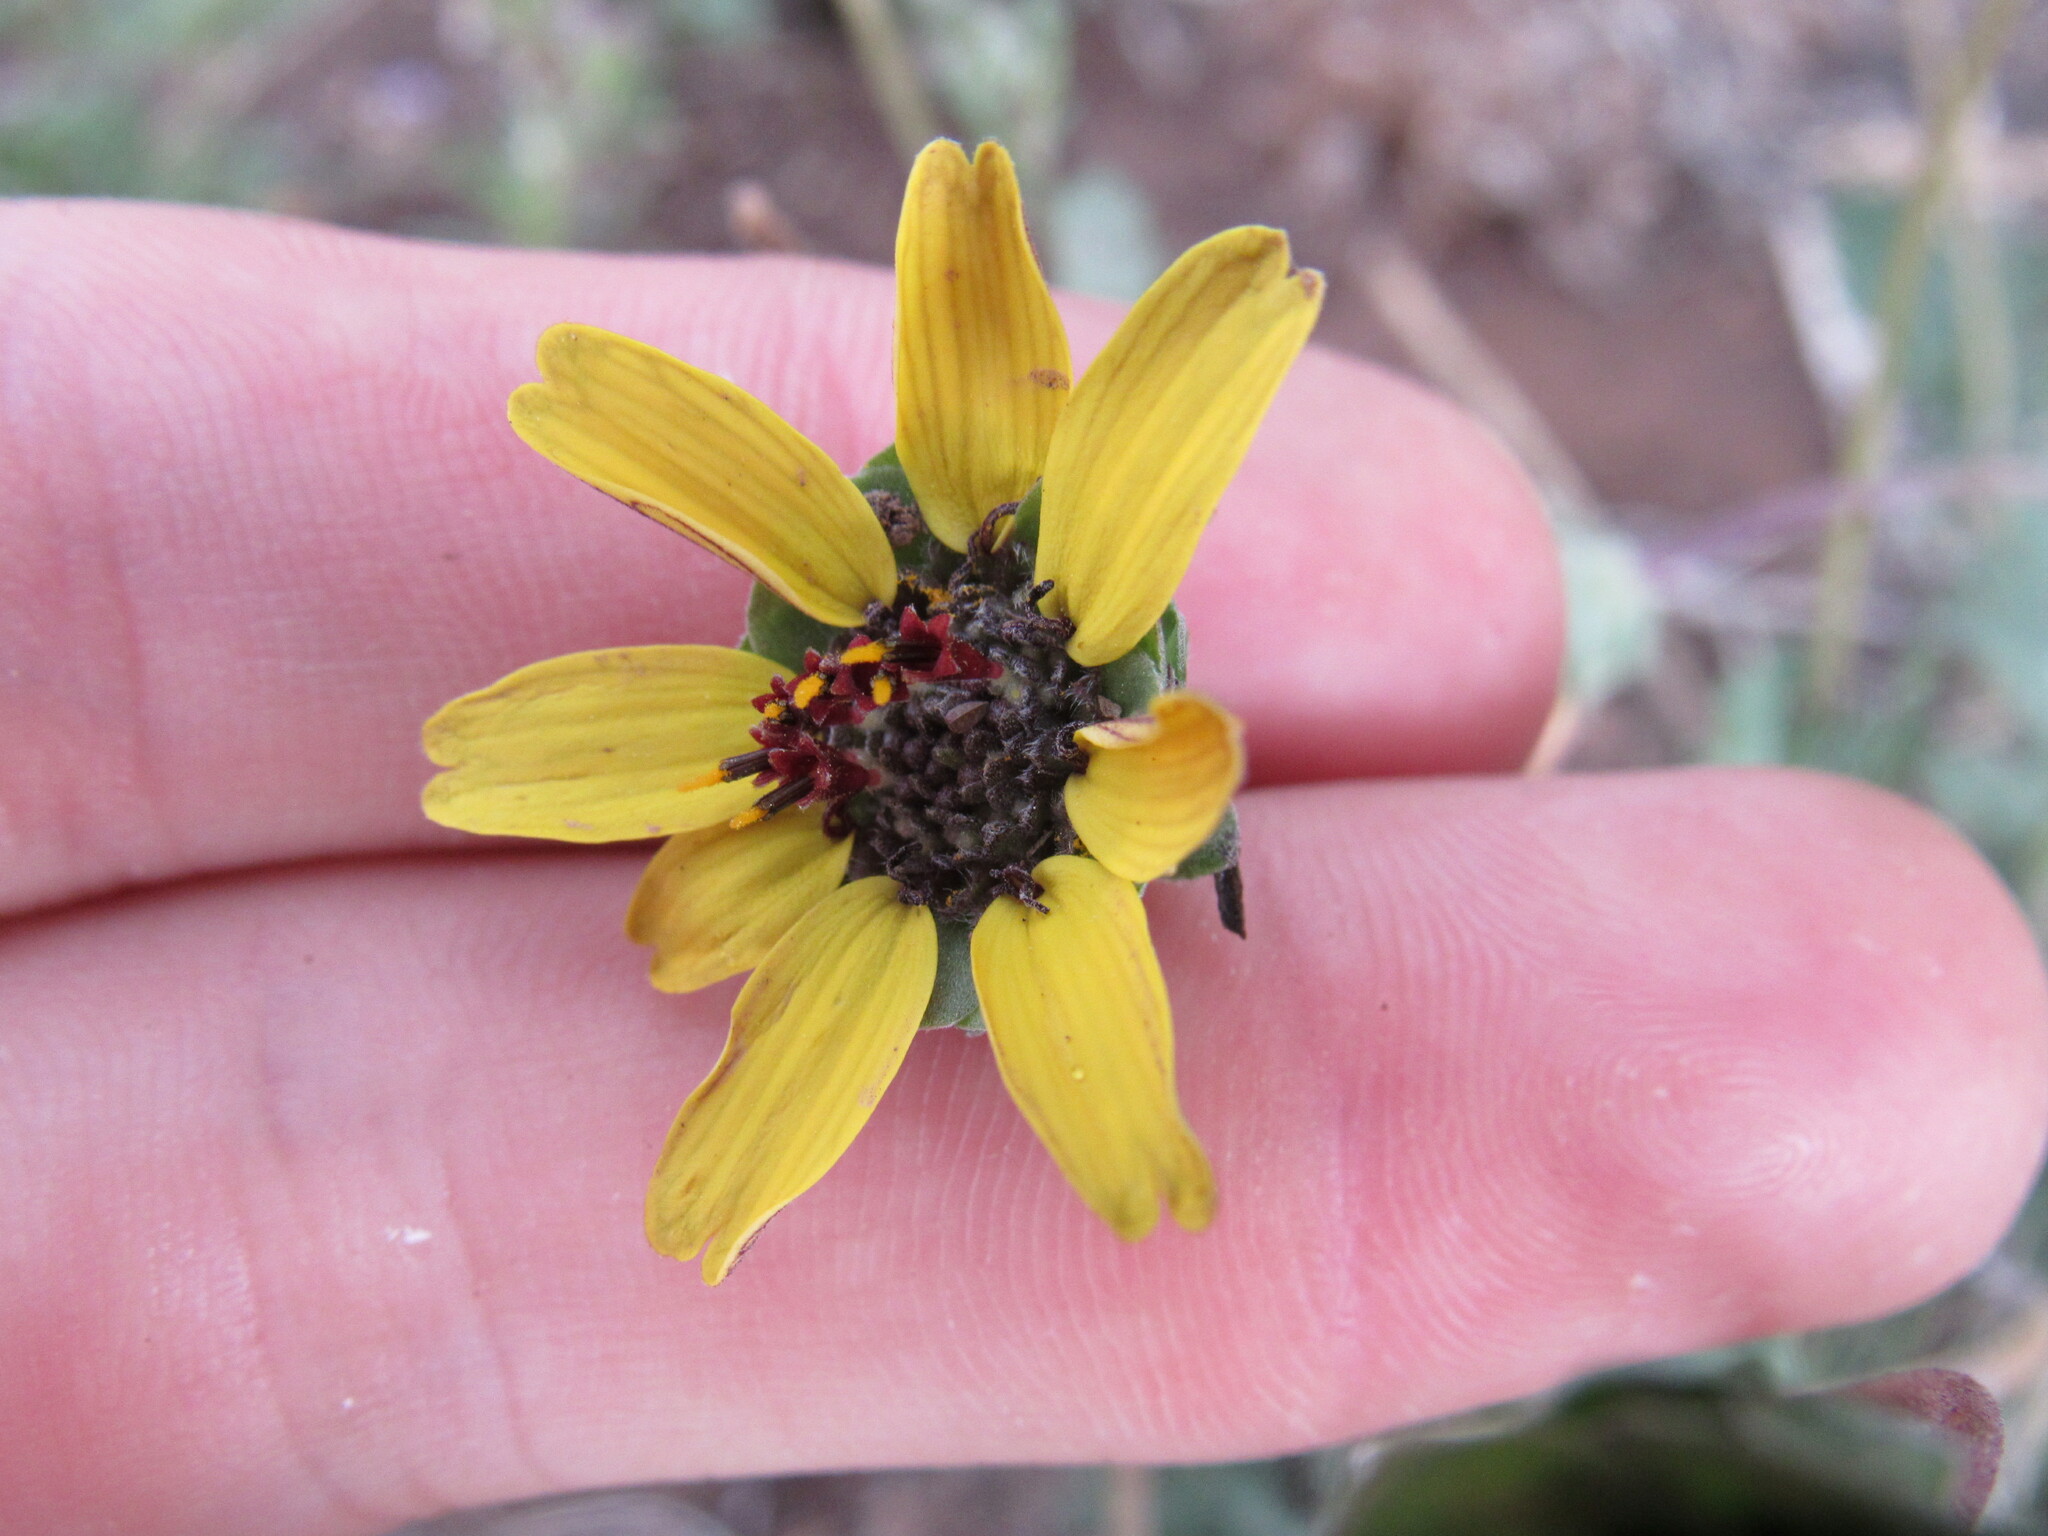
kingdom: Plantae
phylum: Tracheophyta
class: Magnoliopsida
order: Asterales
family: Asteraceae
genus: Berlandiera
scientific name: Berlandiera lyrata
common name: Chocolate-flower
